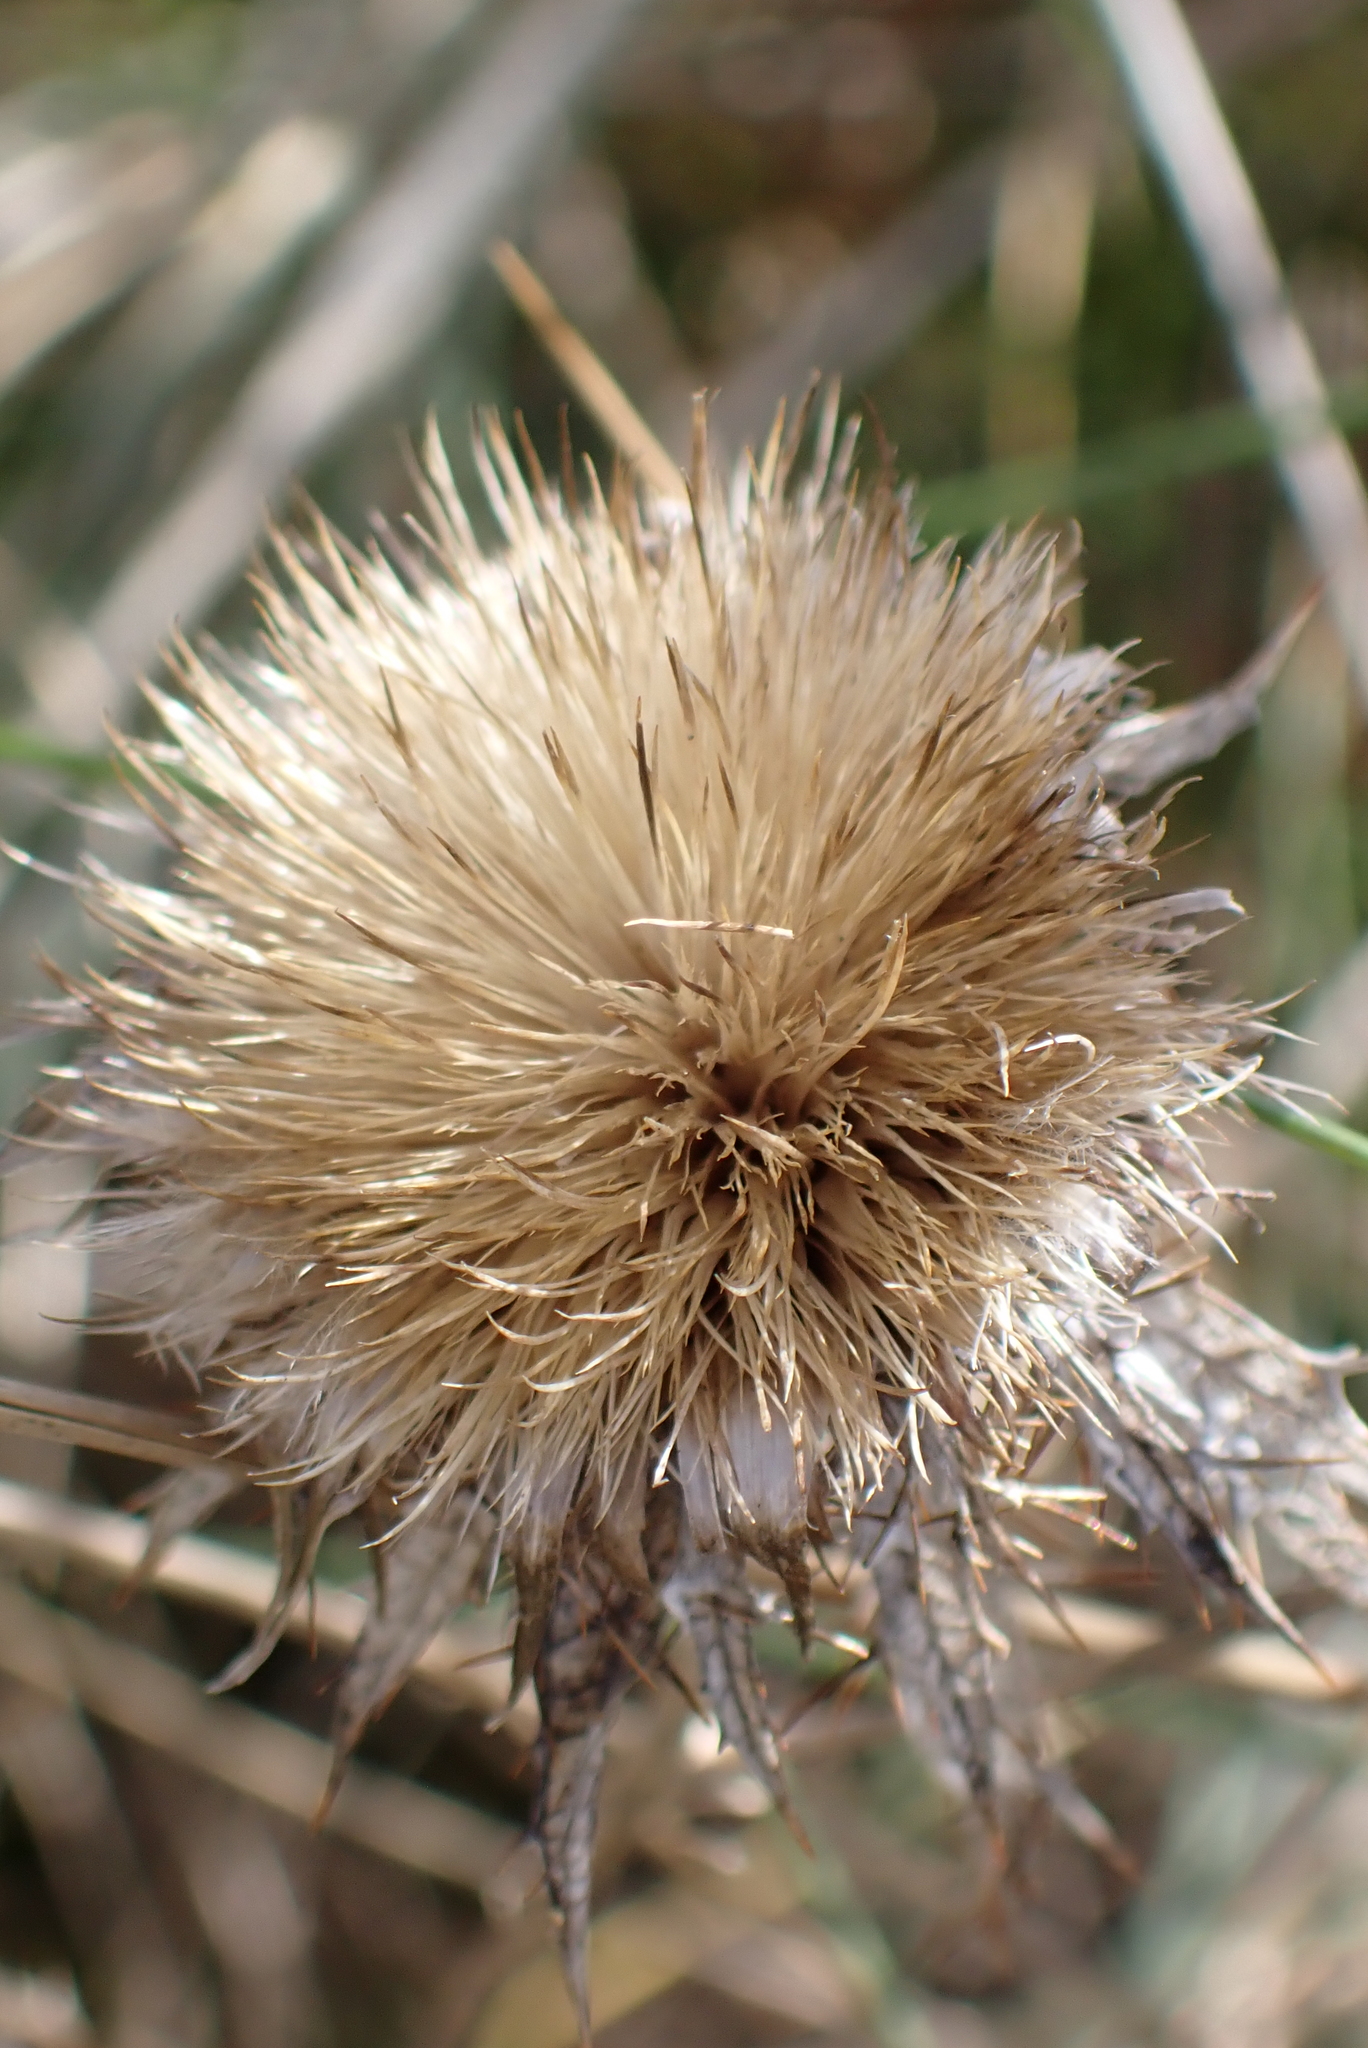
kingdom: Plantae
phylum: Tracheophyta
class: Magnoliopsida
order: Asterales
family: Asteraceae
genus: Carlina
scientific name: Carlina vulgaris
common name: Carline thistle
